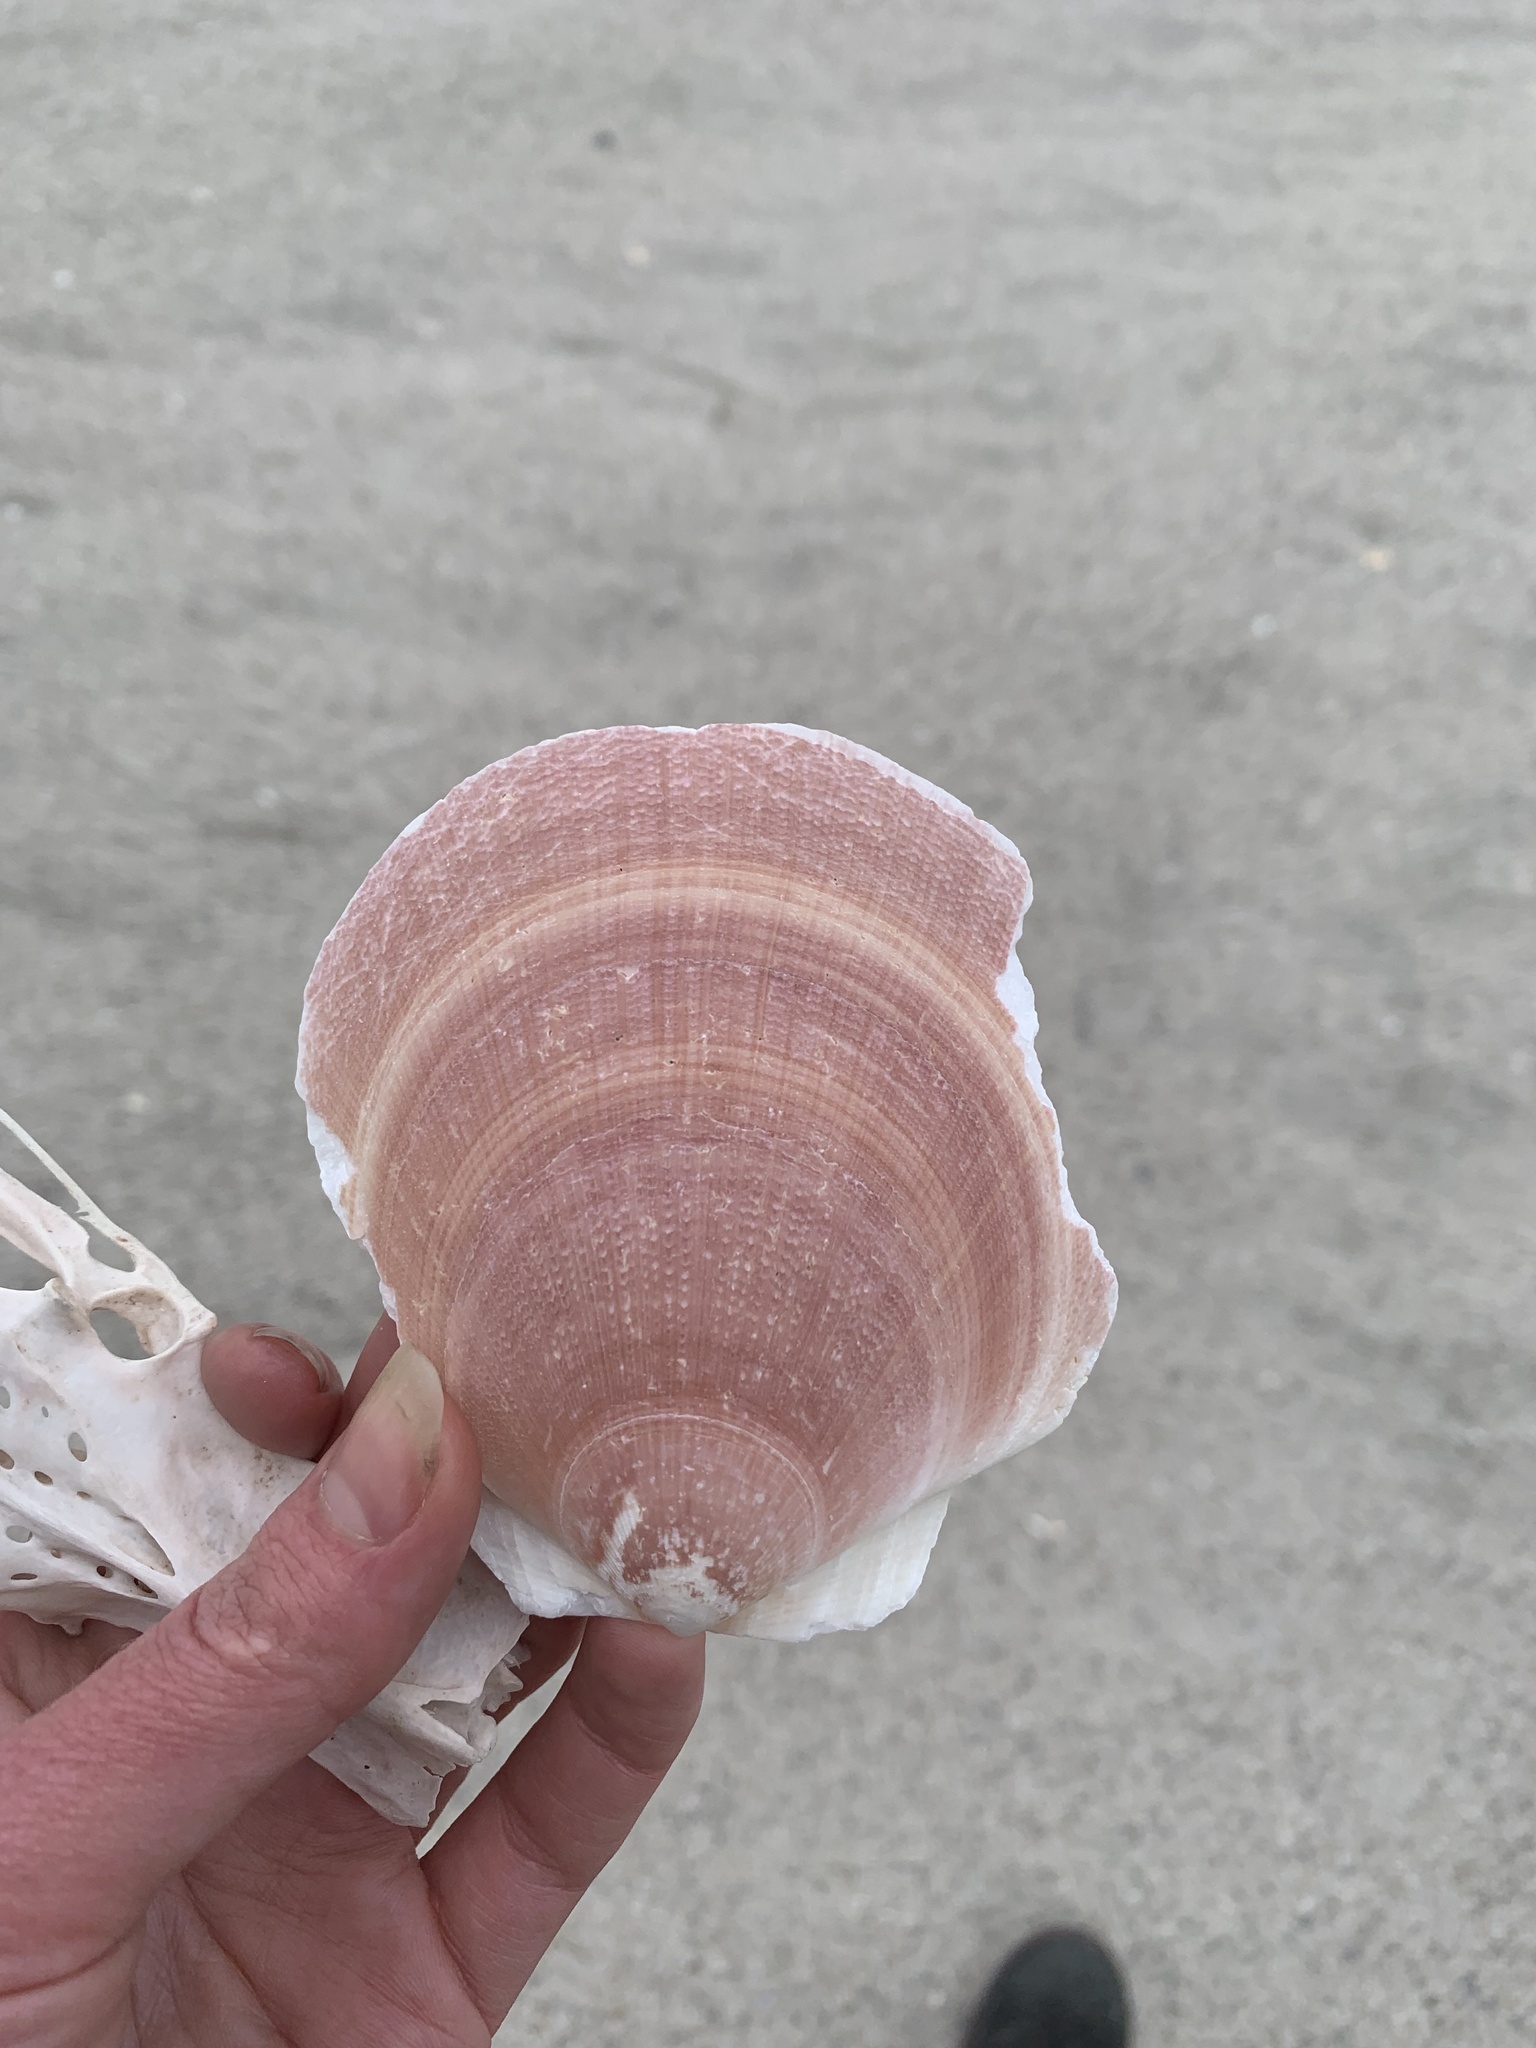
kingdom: Animalia
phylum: Mollusca
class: Bivalvia
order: Pectinida
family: Pectinidae
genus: Placopecten
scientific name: Placopecten magellanicus
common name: American sea scallop
